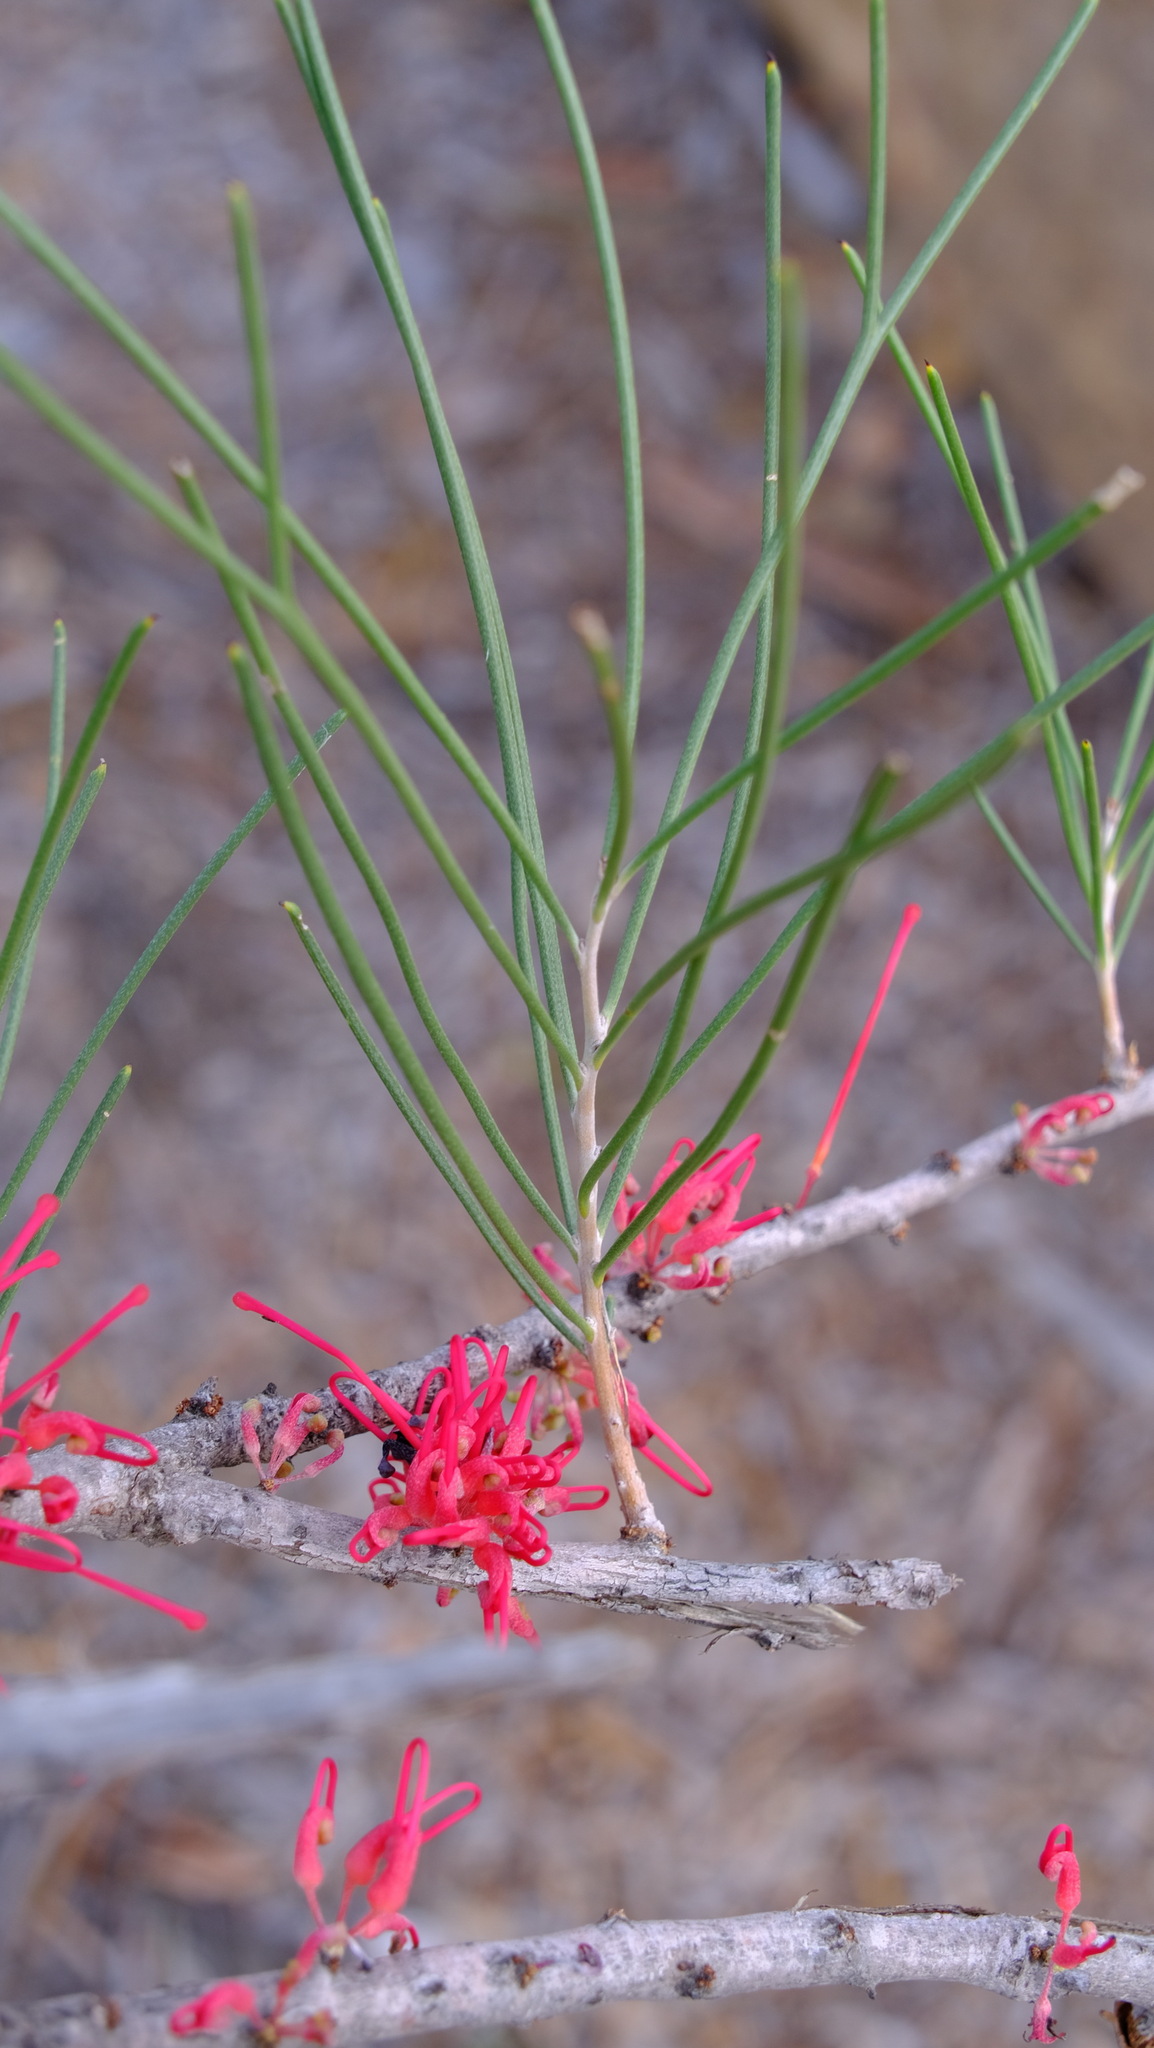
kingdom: Plantae
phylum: Tracheophyta
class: Magnoliopsida
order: Proteales
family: Proteaceae
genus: Hakea
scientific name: Hakea orthorrhyncha
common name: Bird beak hakea
